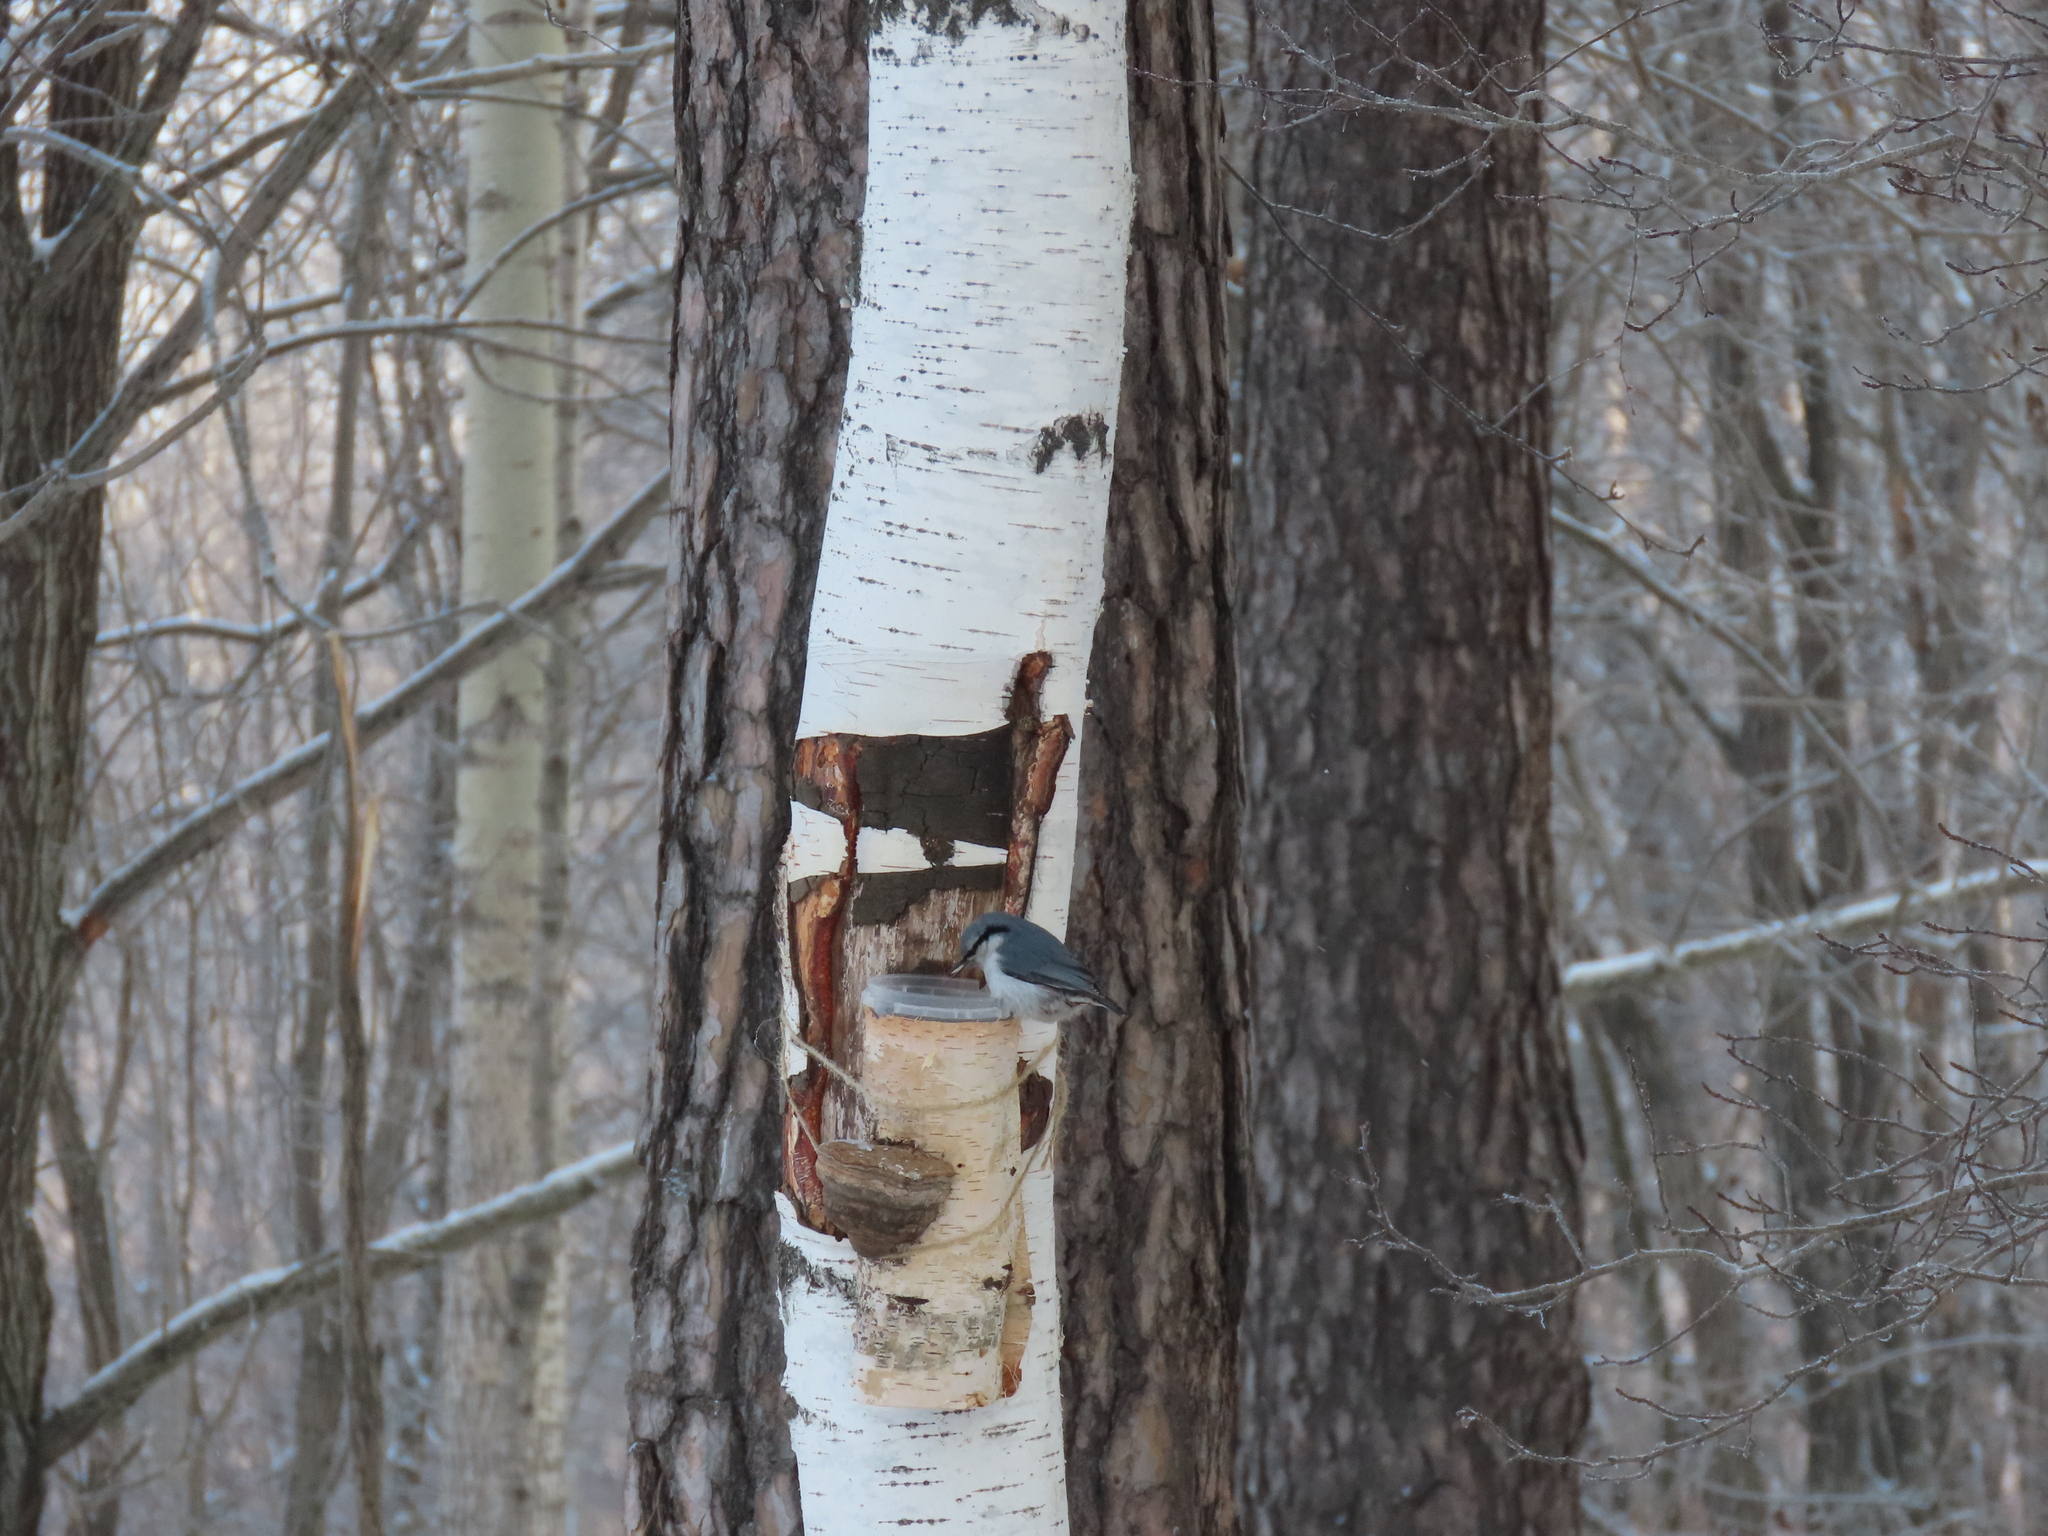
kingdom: Animalia
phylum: Chordata
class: Aves
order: Passeriformes
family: Sittidae
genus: Sitta
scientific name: Sitta europaea
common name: Eurasian nuthatch
